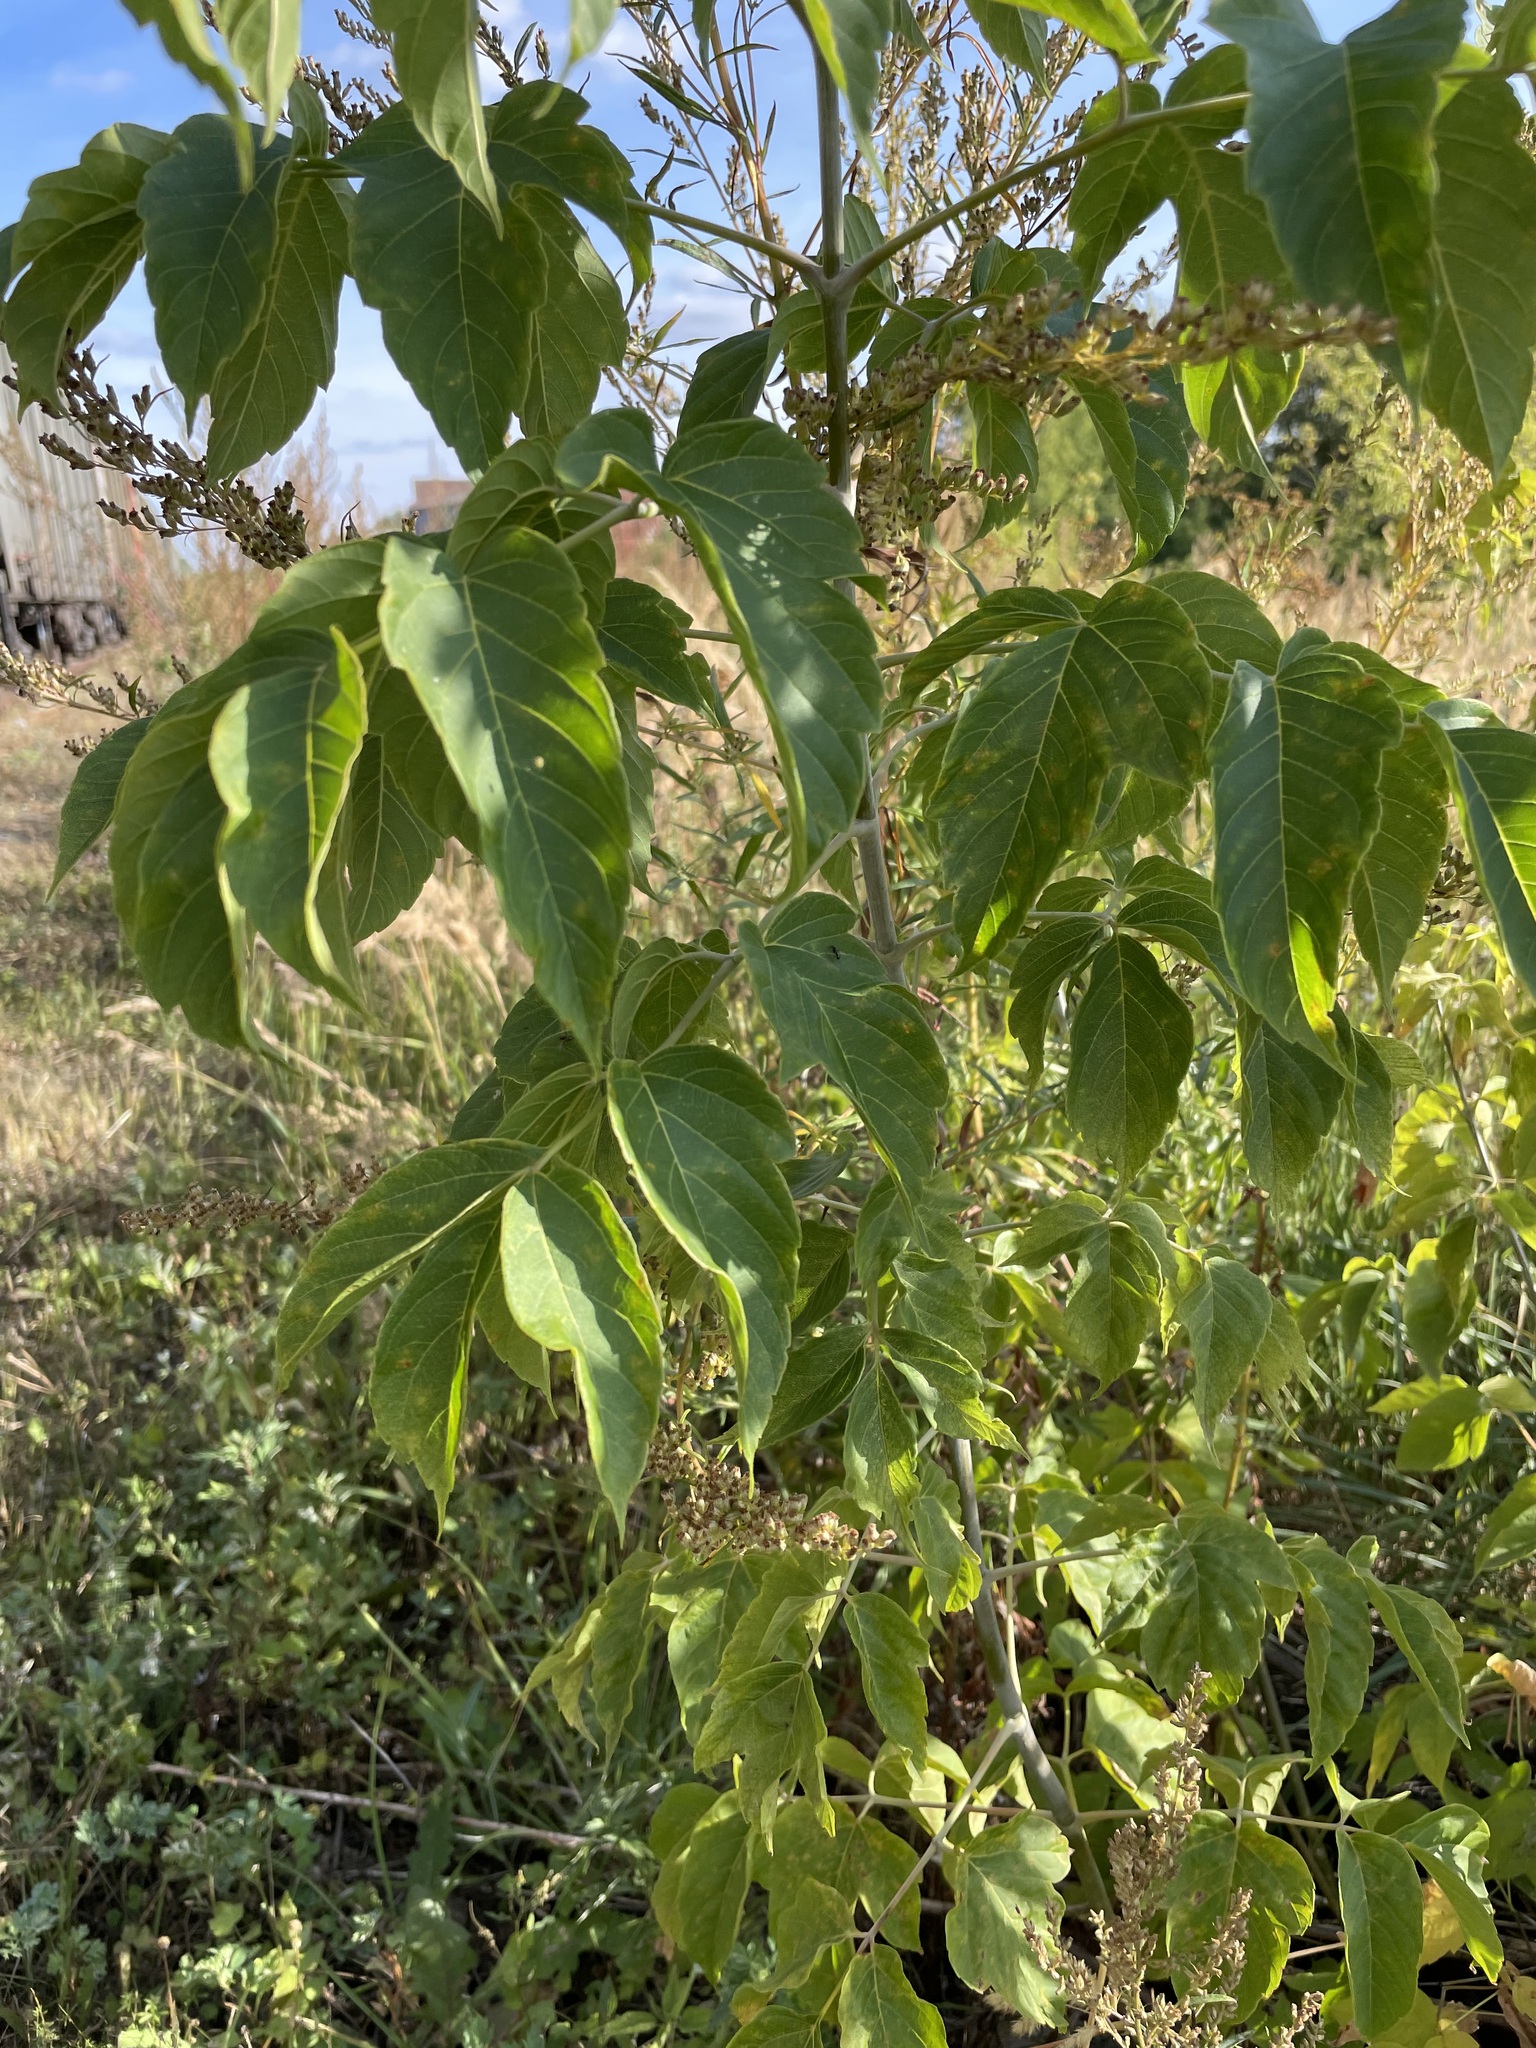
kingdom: Plantae
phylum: Tracheophyta
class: Magnoliopsida
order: Sapindales
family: Sapindaceae
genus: Acer
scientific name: Acer negundo
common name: Ashleaf maple
